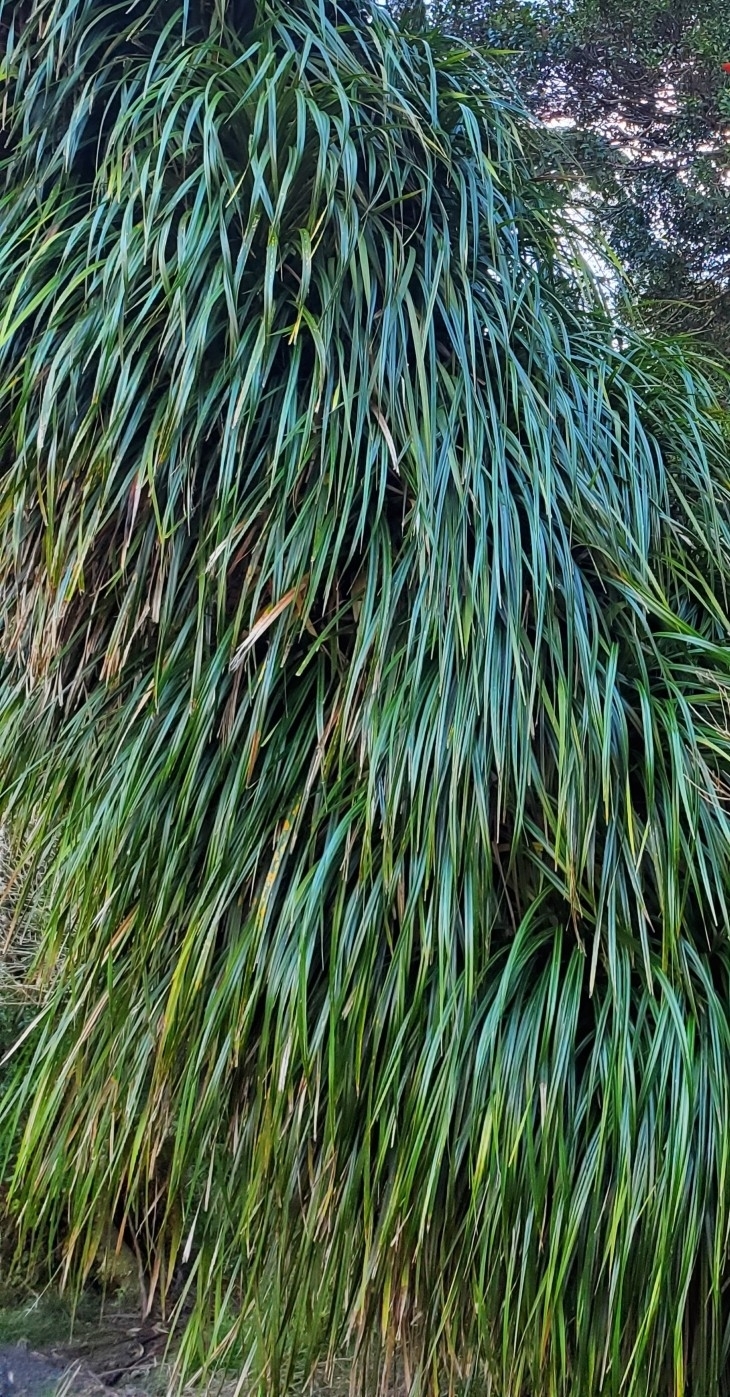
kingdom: Plantae
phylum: Tracheophyta
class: Liliopsida
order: Pandanales
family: Pandanaceae
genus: Freycinetia
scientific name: Freycinetia banksii
